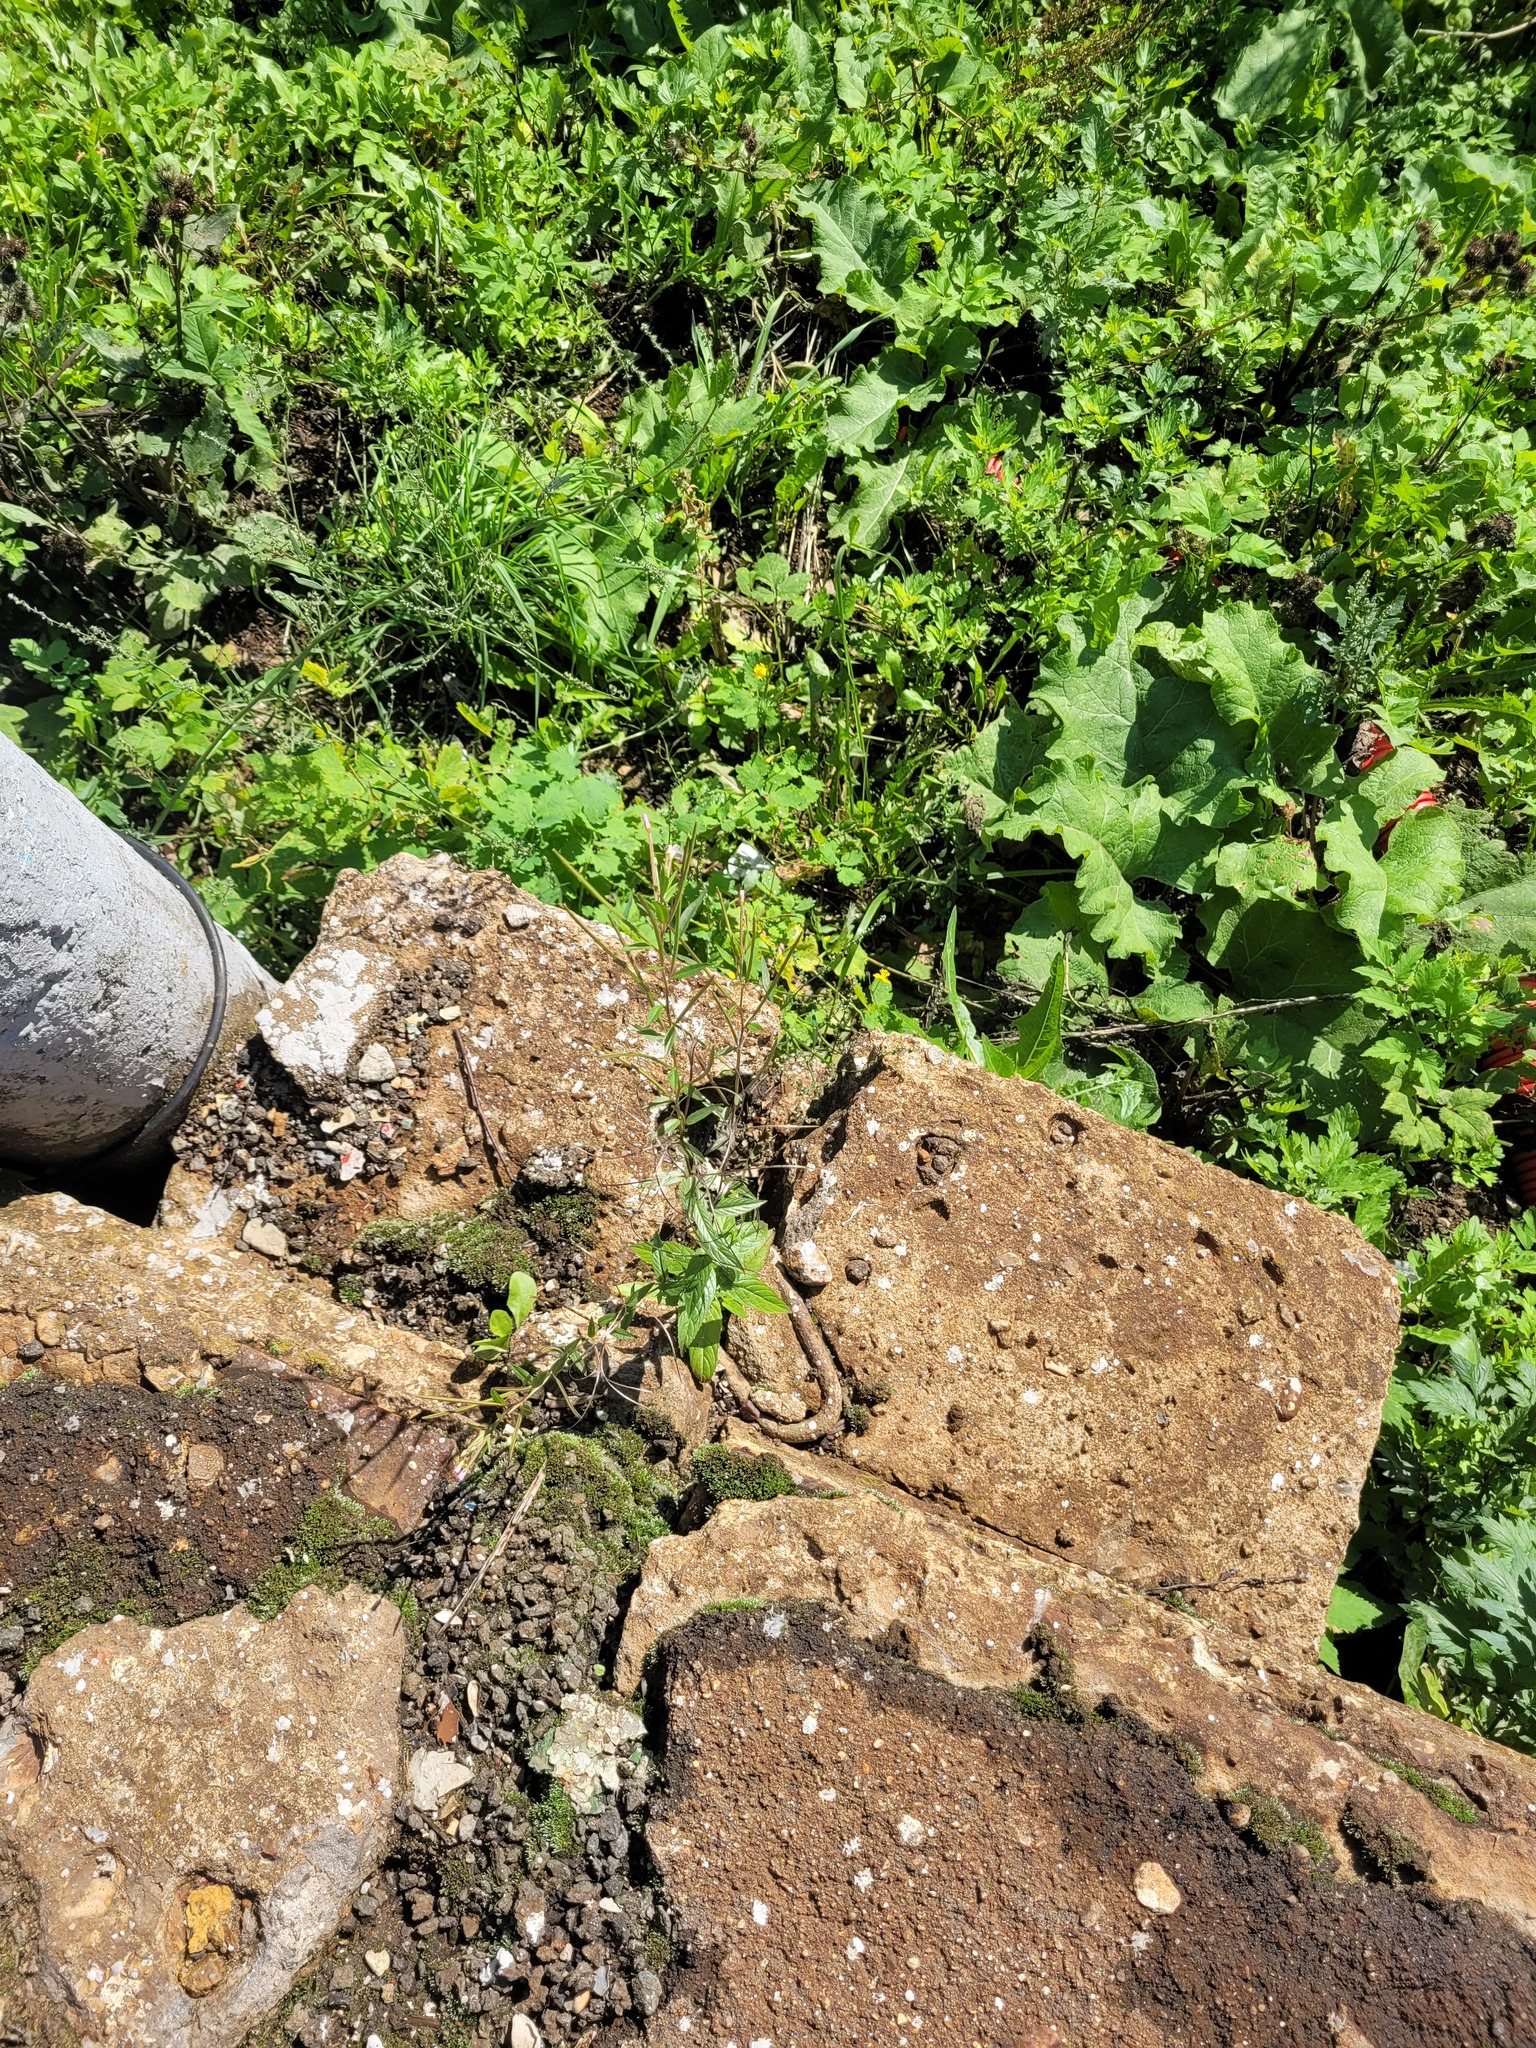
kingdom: Plantae
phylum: Tracheophyta
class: Magnoliopsida
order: Myrtales
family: Onagraceae
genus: Epilobium
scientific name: Epilobium ciliatum
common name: American willowherb
